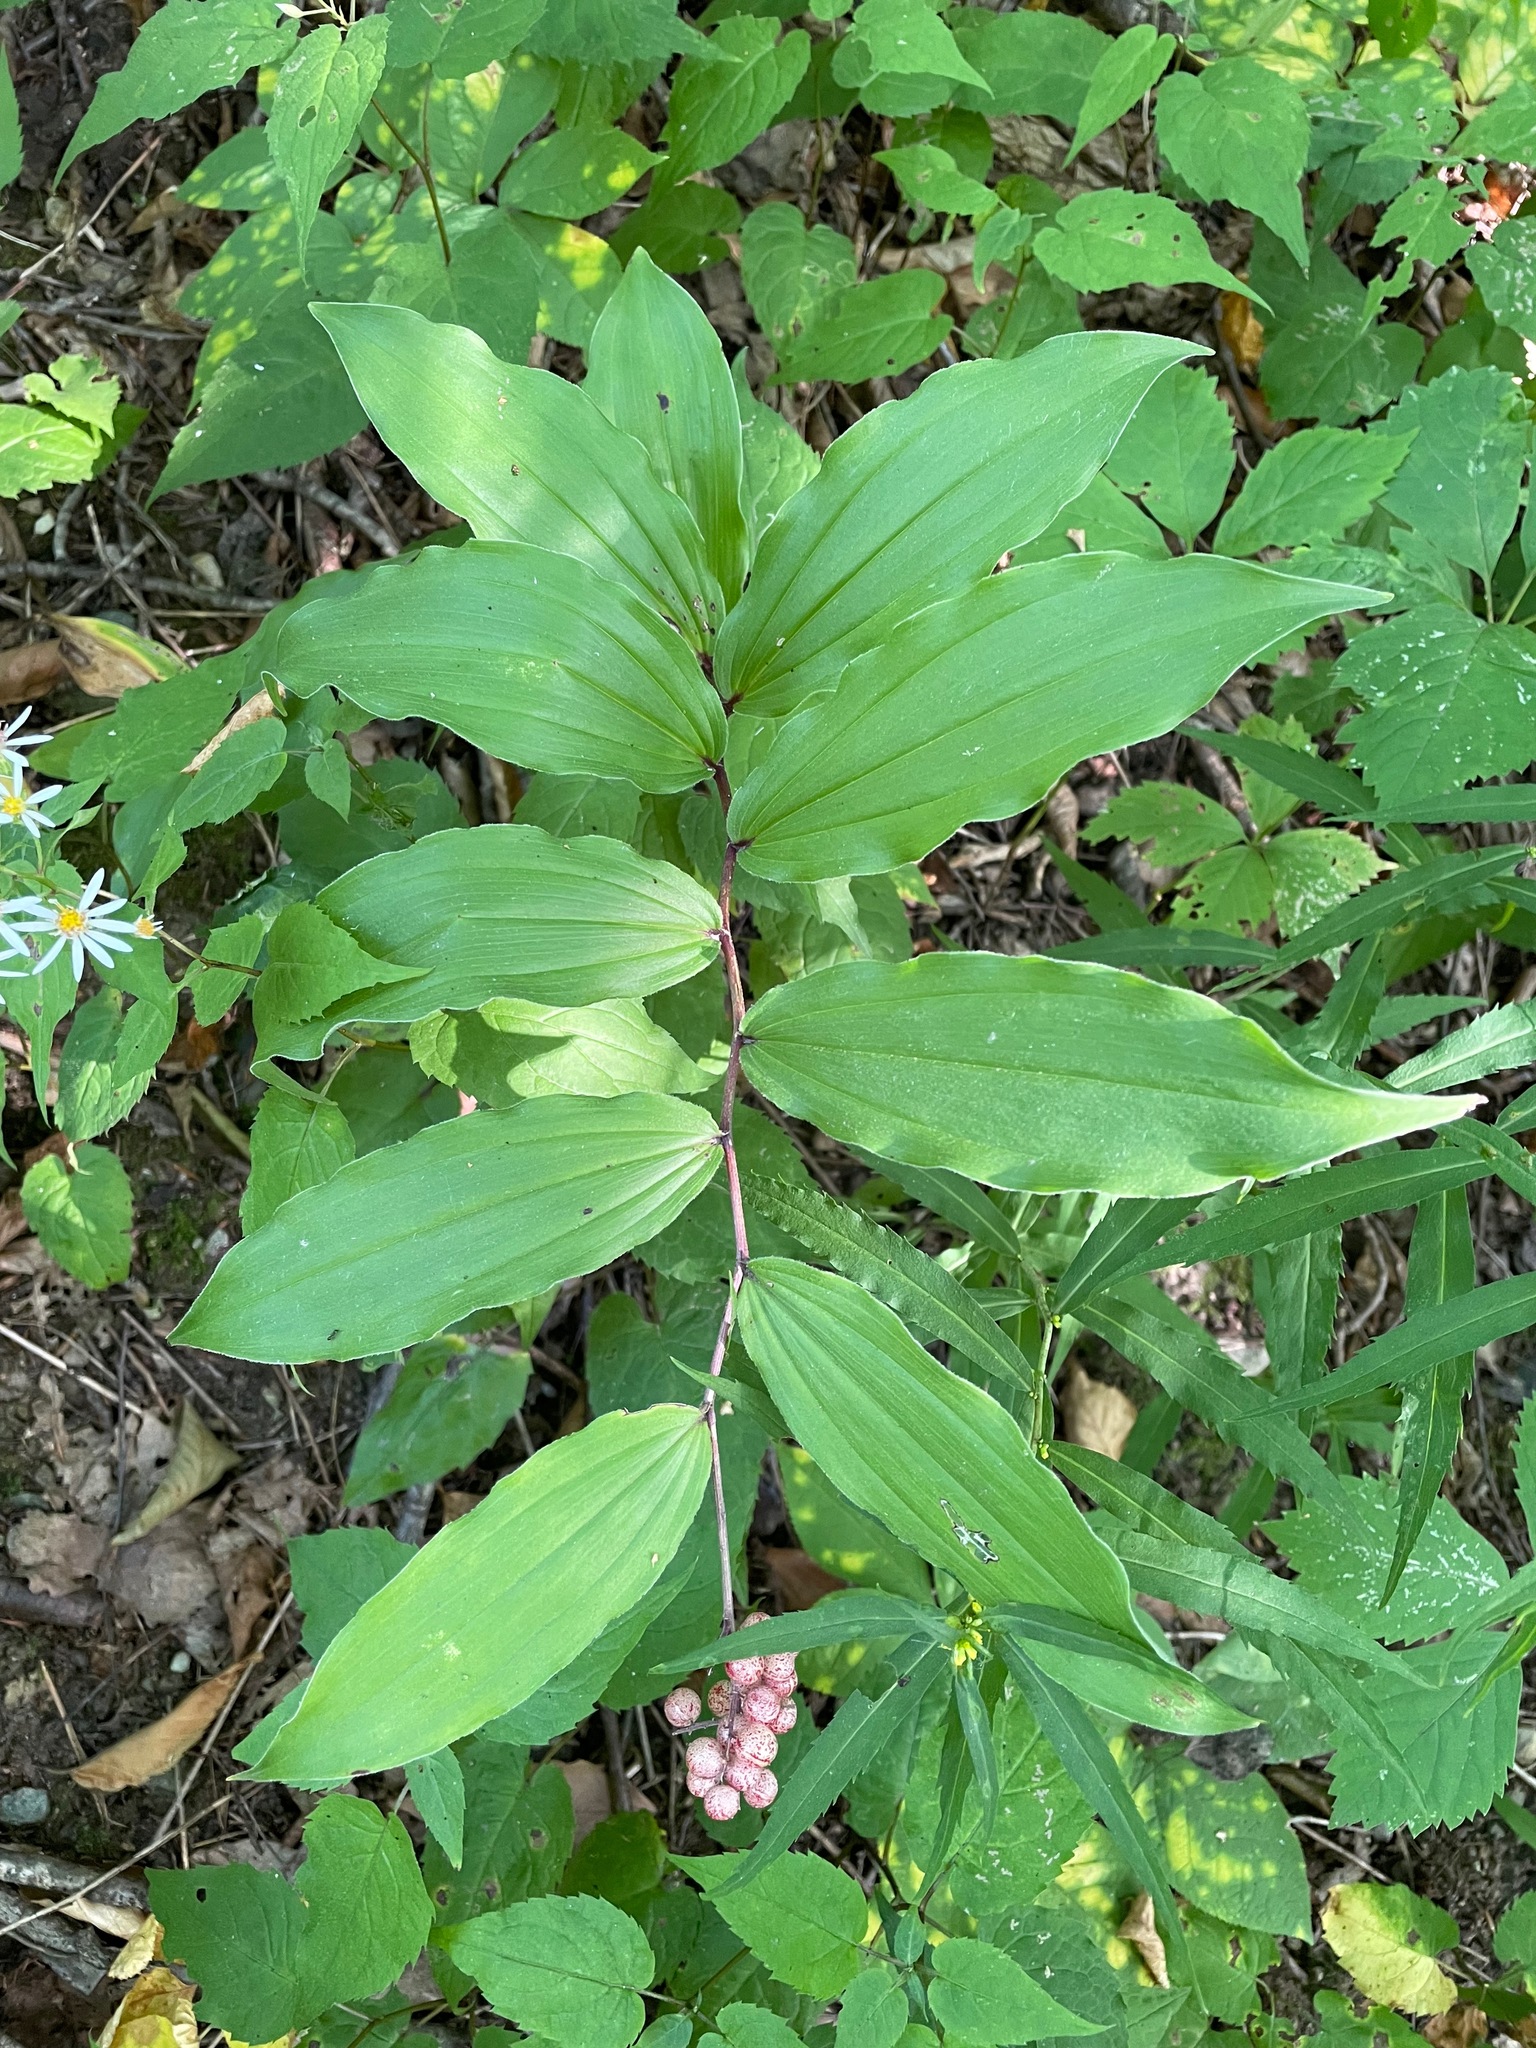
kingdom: Plantae
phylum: Tracheophyta
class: Liliopsida
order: Asparagales
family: Asparagaceae
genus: Maianthemum
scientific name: Maianthemum racemosum
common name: False spikenard
